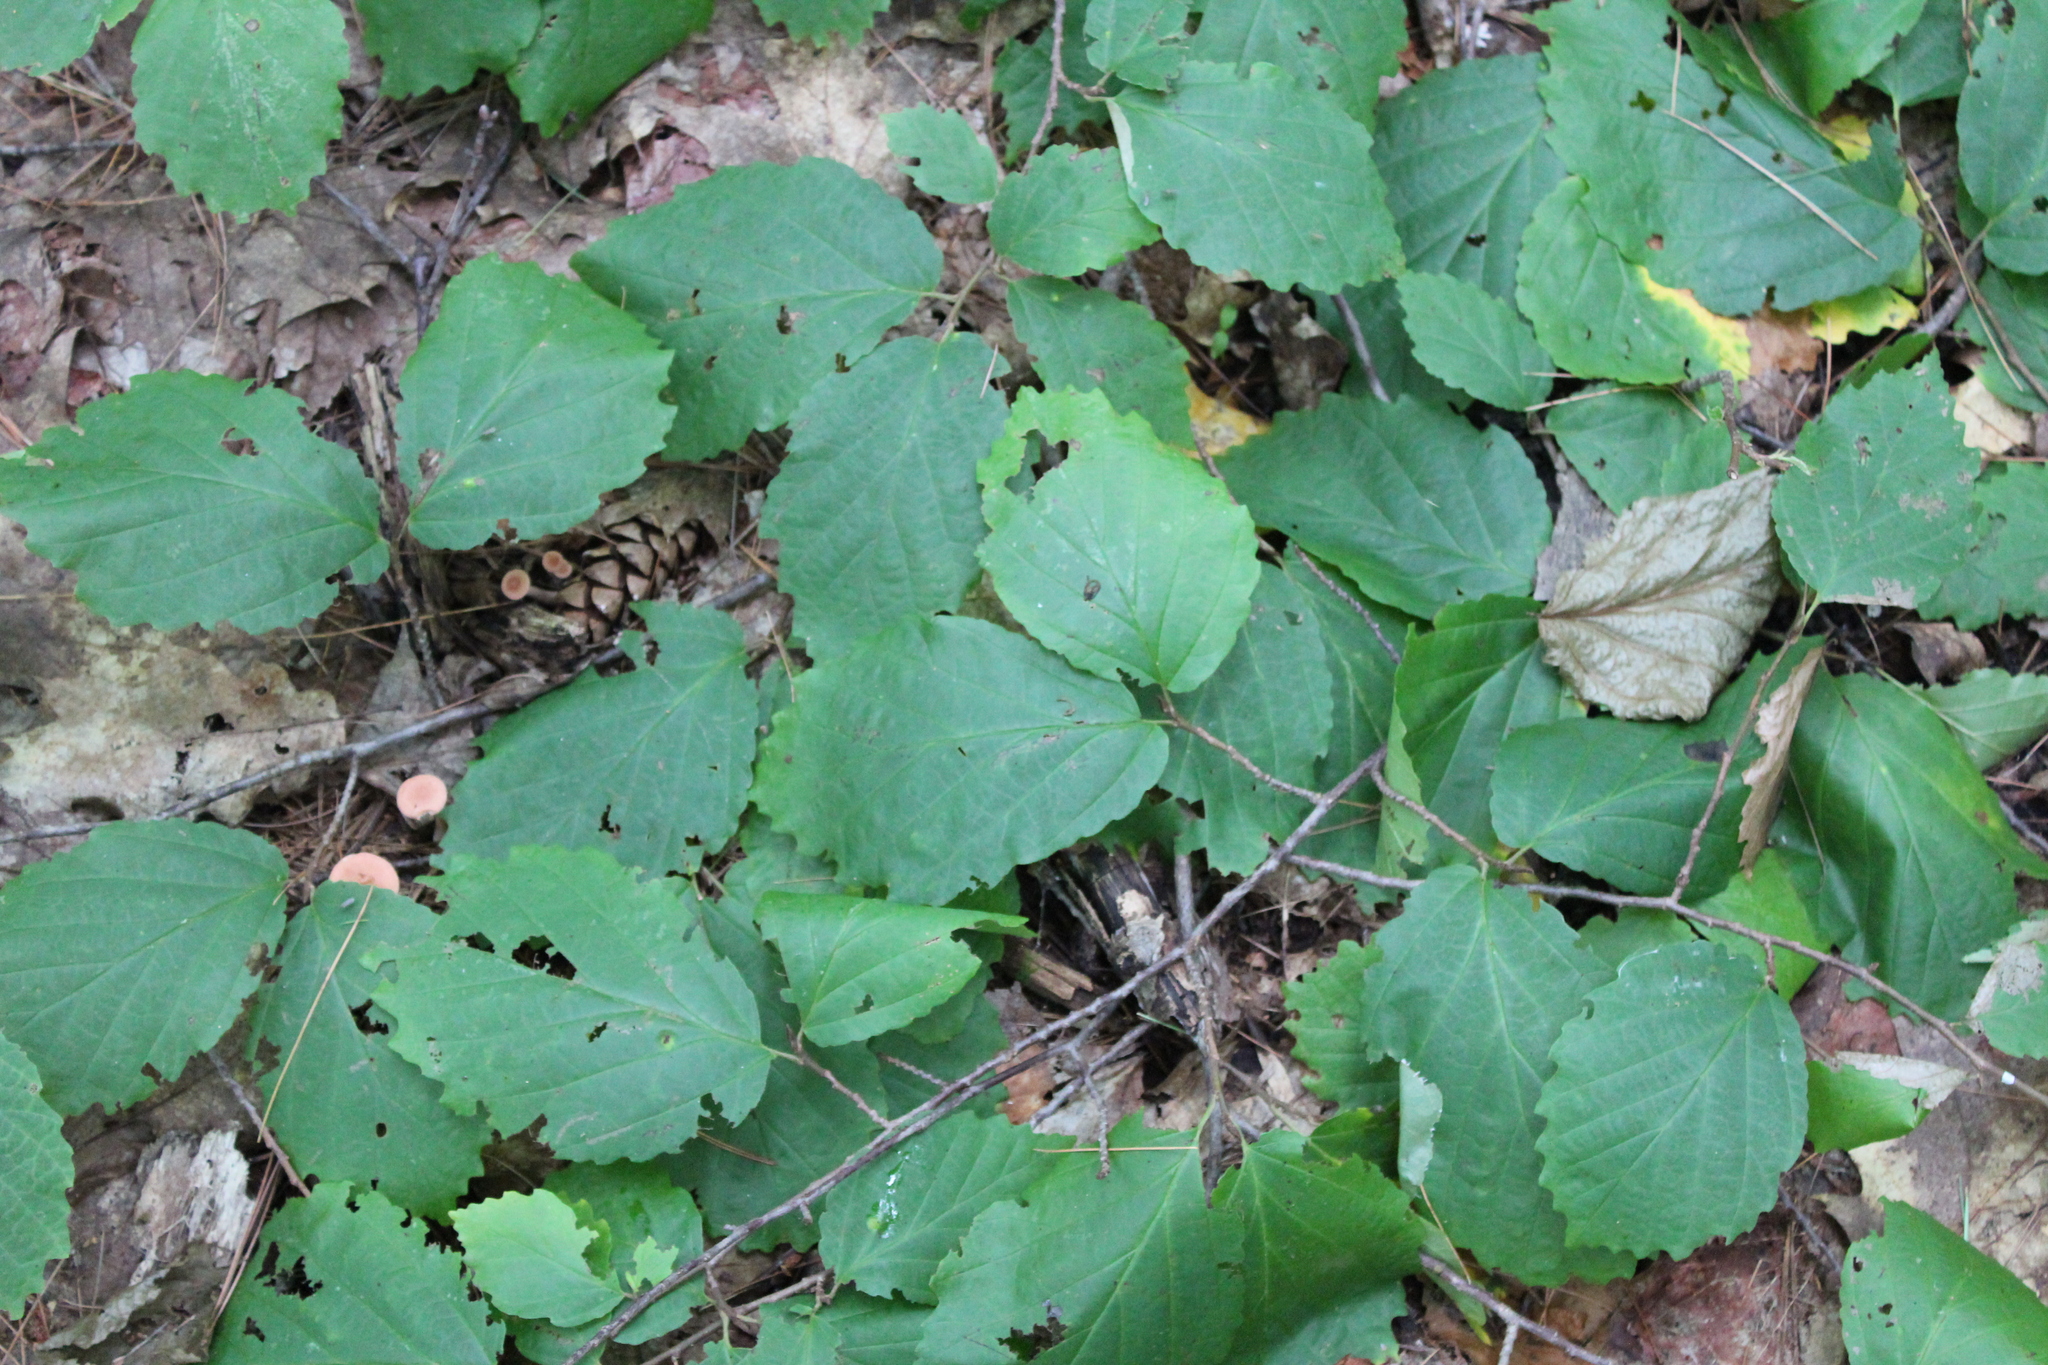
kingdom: Plantae
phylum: Tracheophyta
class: Magnoliopsida
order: Saxifragales
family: Hamamelidaceae
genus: Hamamelis
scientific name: Hamamelis virginiana
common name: Witch-hazel
